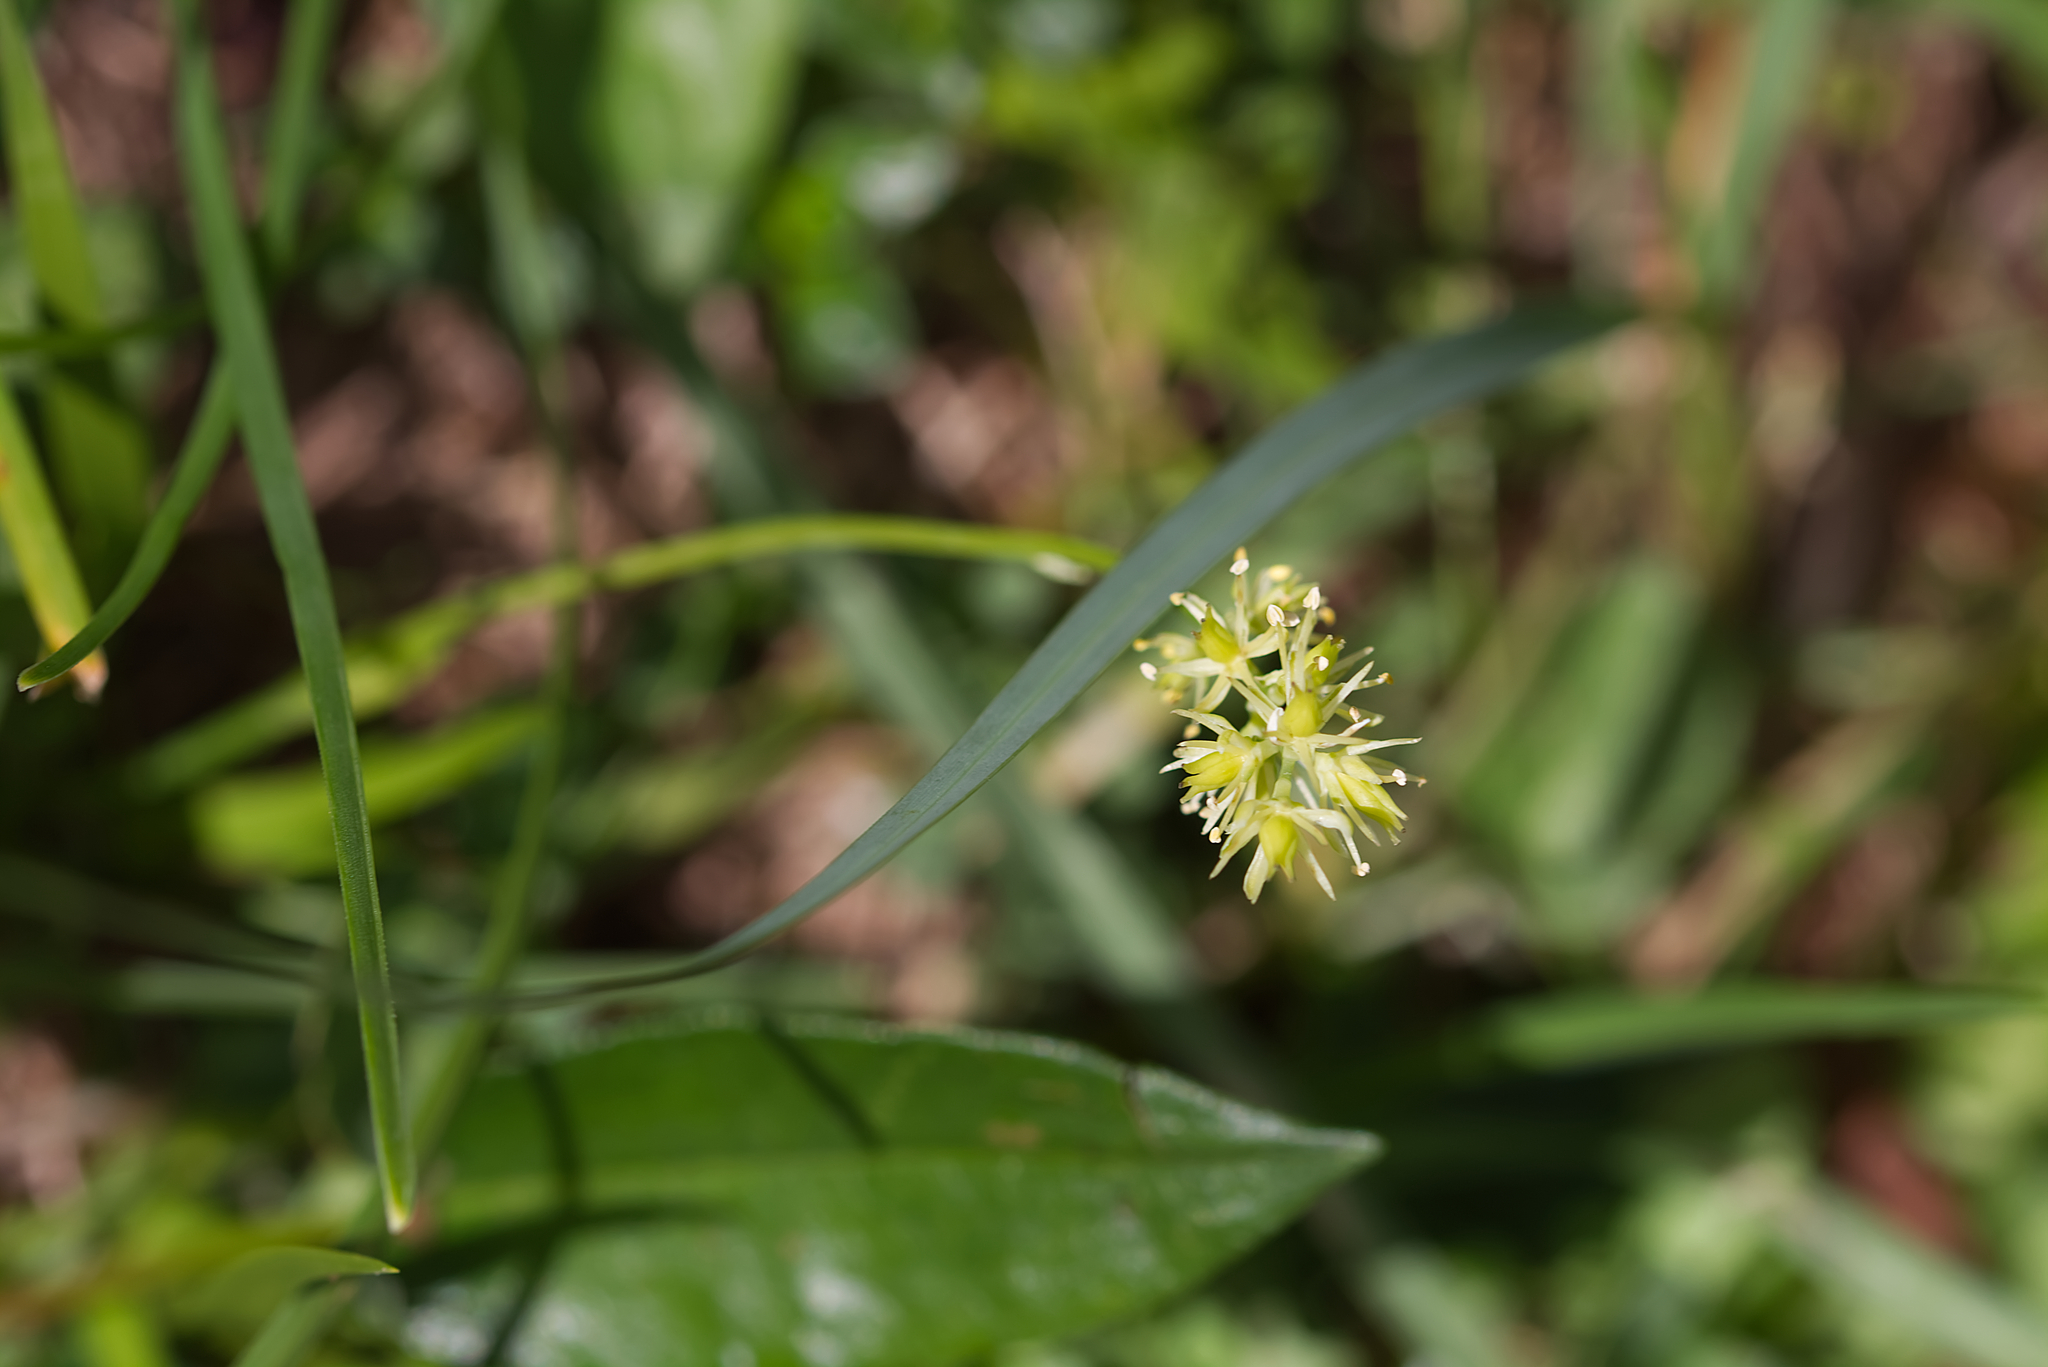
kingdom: Plantae
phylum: Tracheophyta
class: Liliopsida
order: Alismatales
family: Tofieldiaceae
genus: Tofieldia
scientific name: Tofieldia calyculata
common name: German-asphodel
